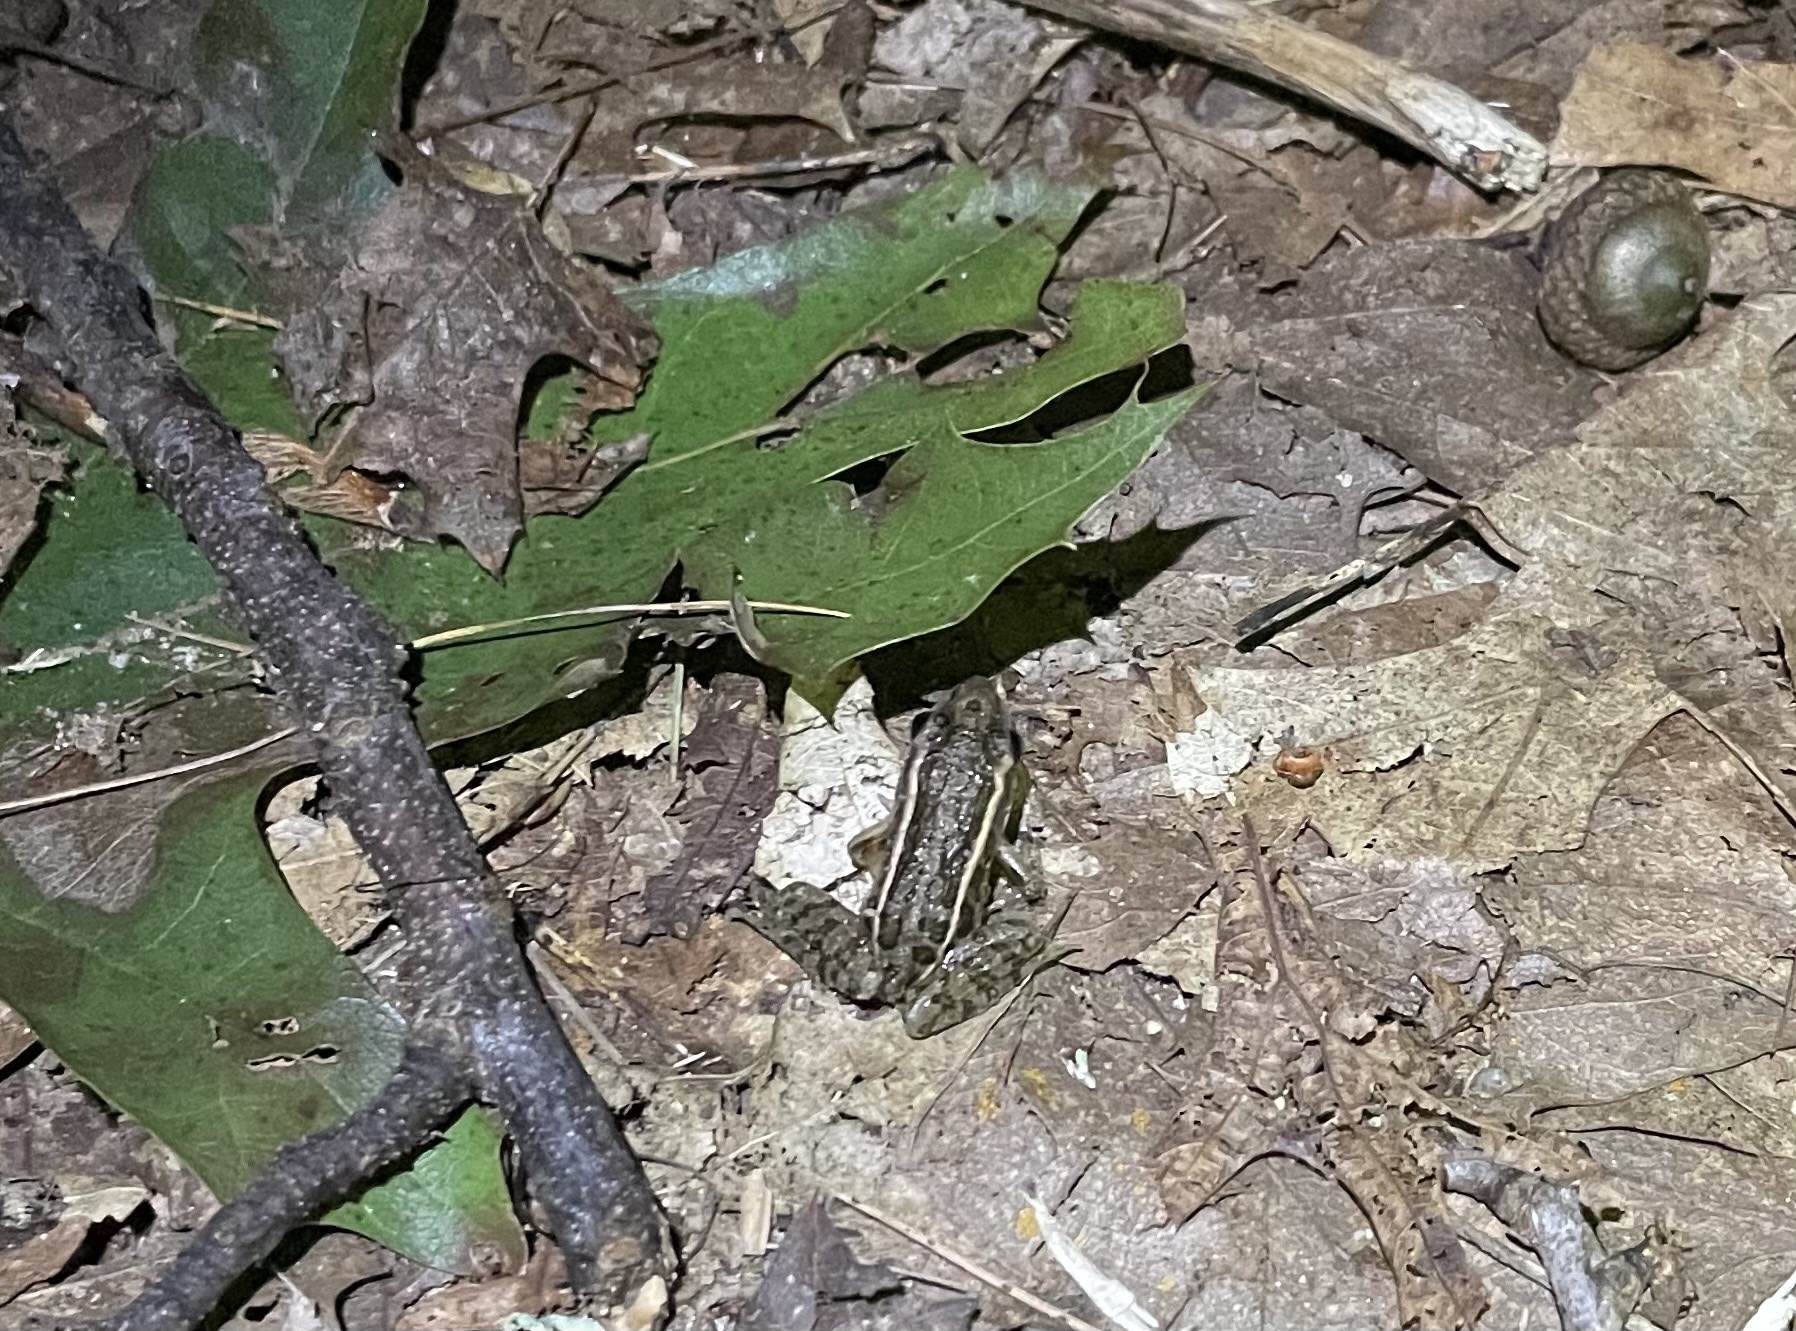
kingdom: Animalia
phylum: Chordata
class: Amphibia
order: Anura
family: Ranidae
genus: Lithobates
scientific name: Lithobates palustris
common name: Pickerel frog
